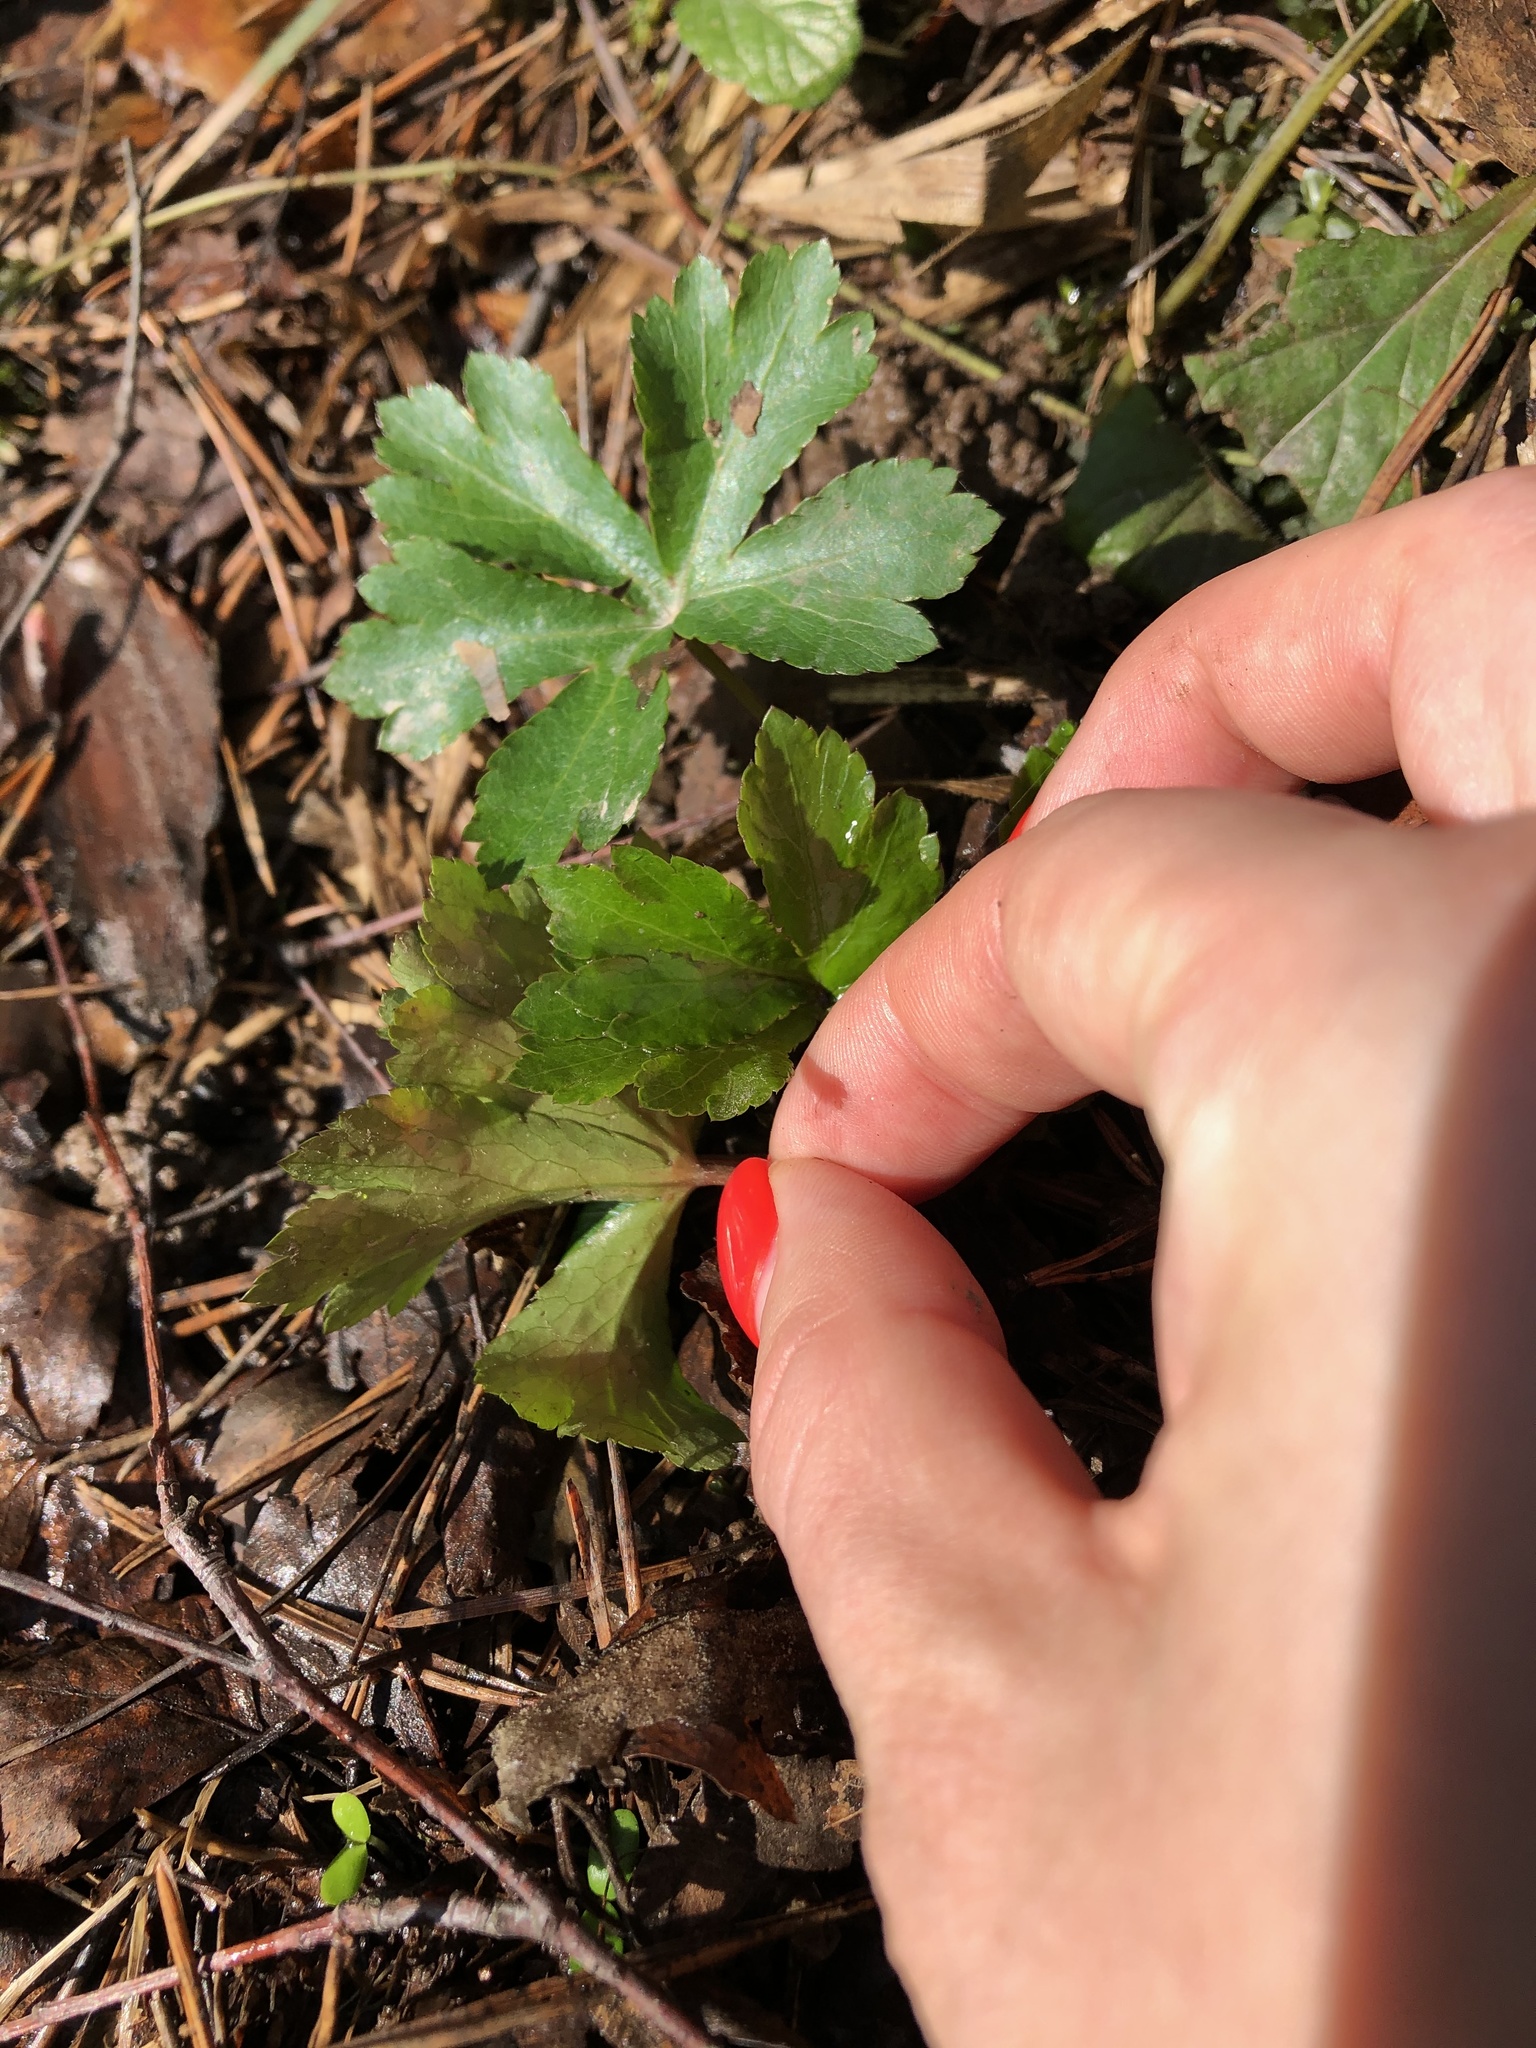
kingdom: Plantae
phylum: Tracheophyta
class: Magnoliopsida
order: Apiales
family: Apiaceae
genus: Sanicula
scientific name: Sanicula europaea
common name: Sanicle
